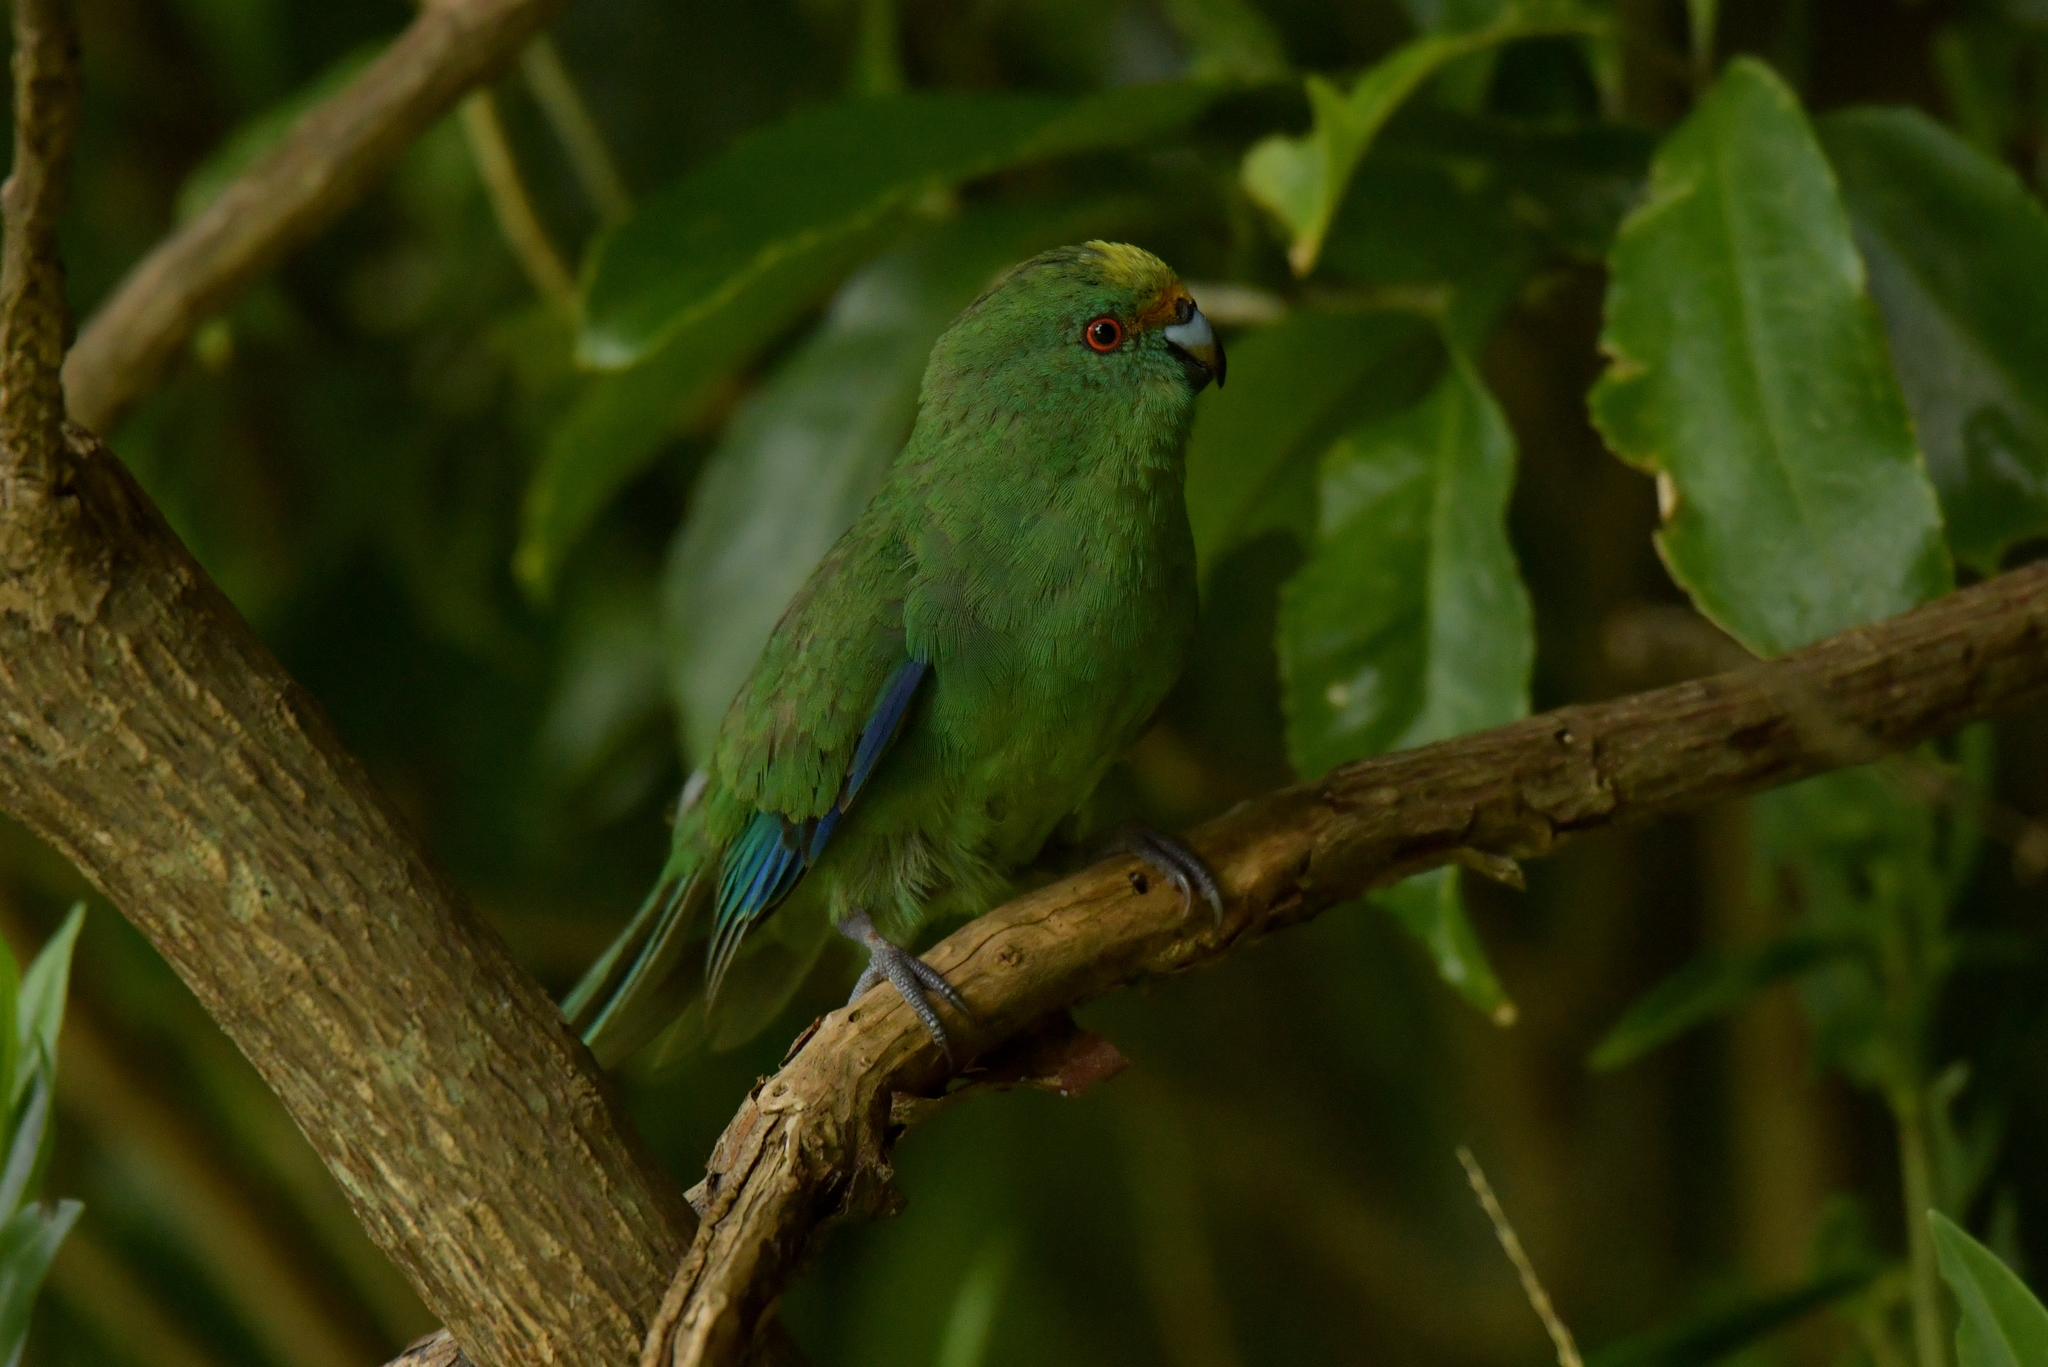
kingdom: Animalia
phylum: Chordata
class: Aves
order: Psittaciformes
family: Psittacidae
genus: Cyanoramphus
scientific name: Cyanoramphus malherbi
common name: Malherbe's parakeet
